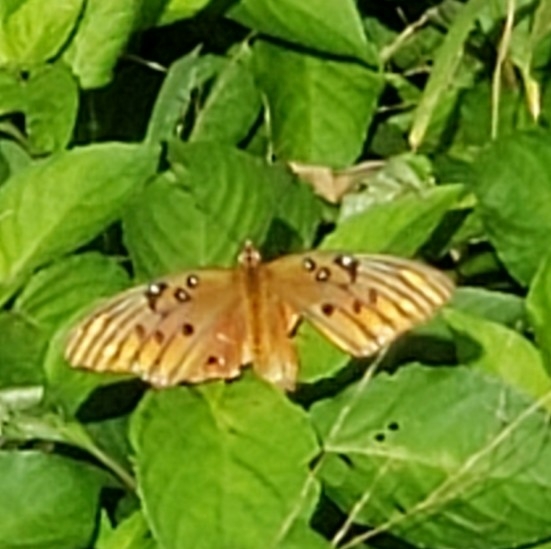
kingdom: Animalia
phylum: Arthropoda
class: Insecta
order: Lepidoptera
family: Nymphalidae
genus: Dione
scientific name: Dione vanillae
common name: Gulf fritillary
